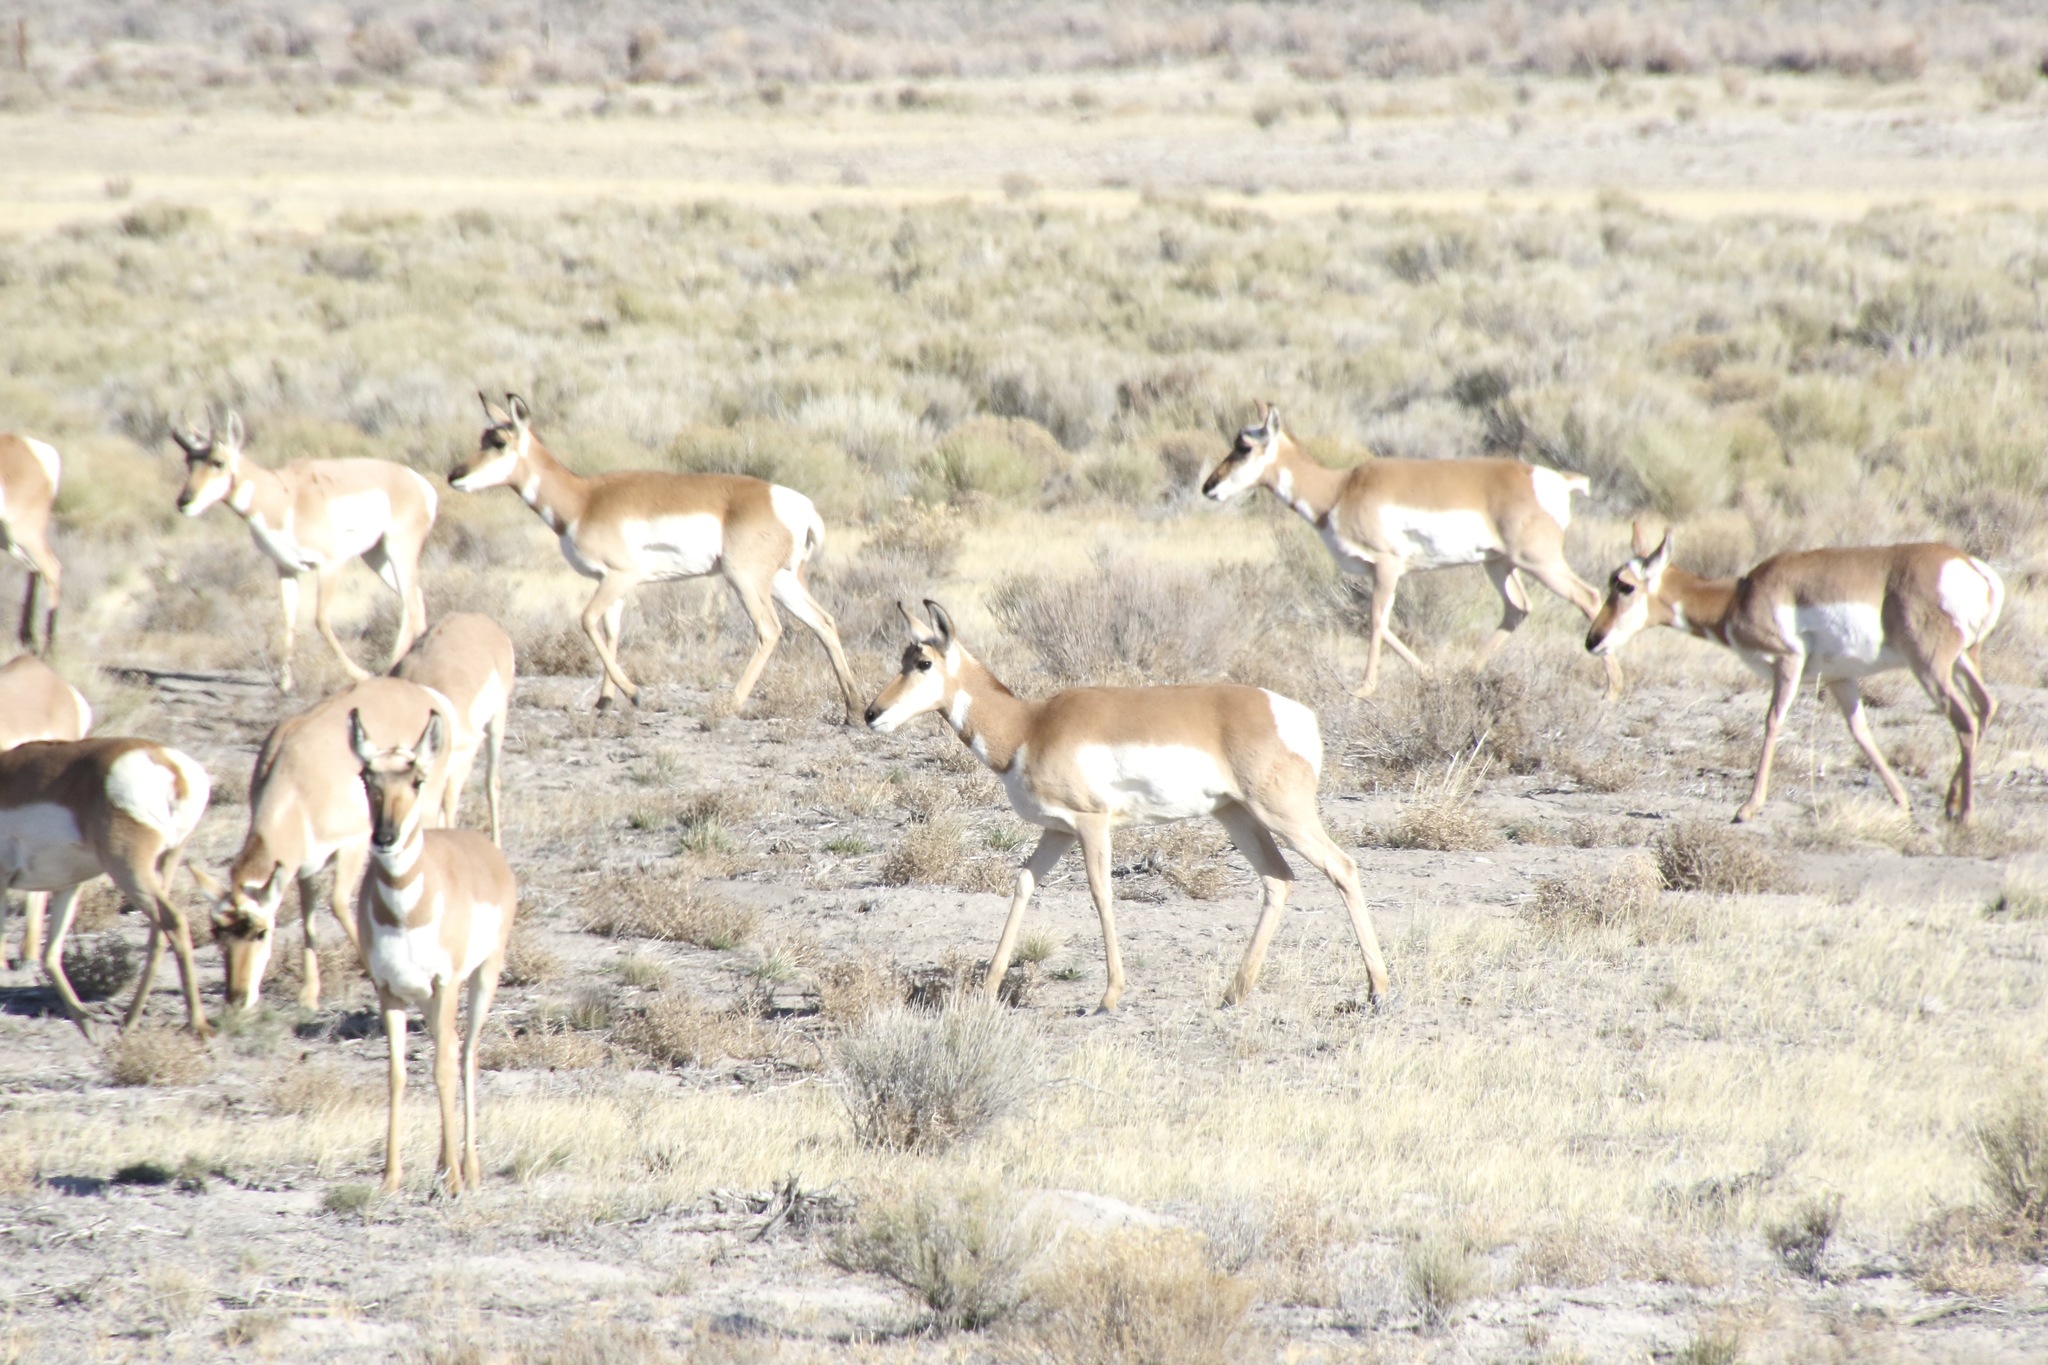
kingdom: Animalia
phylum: Chordata
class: Mammalia
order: Artiodactyla
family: Antilocapridae
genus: Antilocapra
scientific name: Antilocapra americana
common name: Pronghorn
